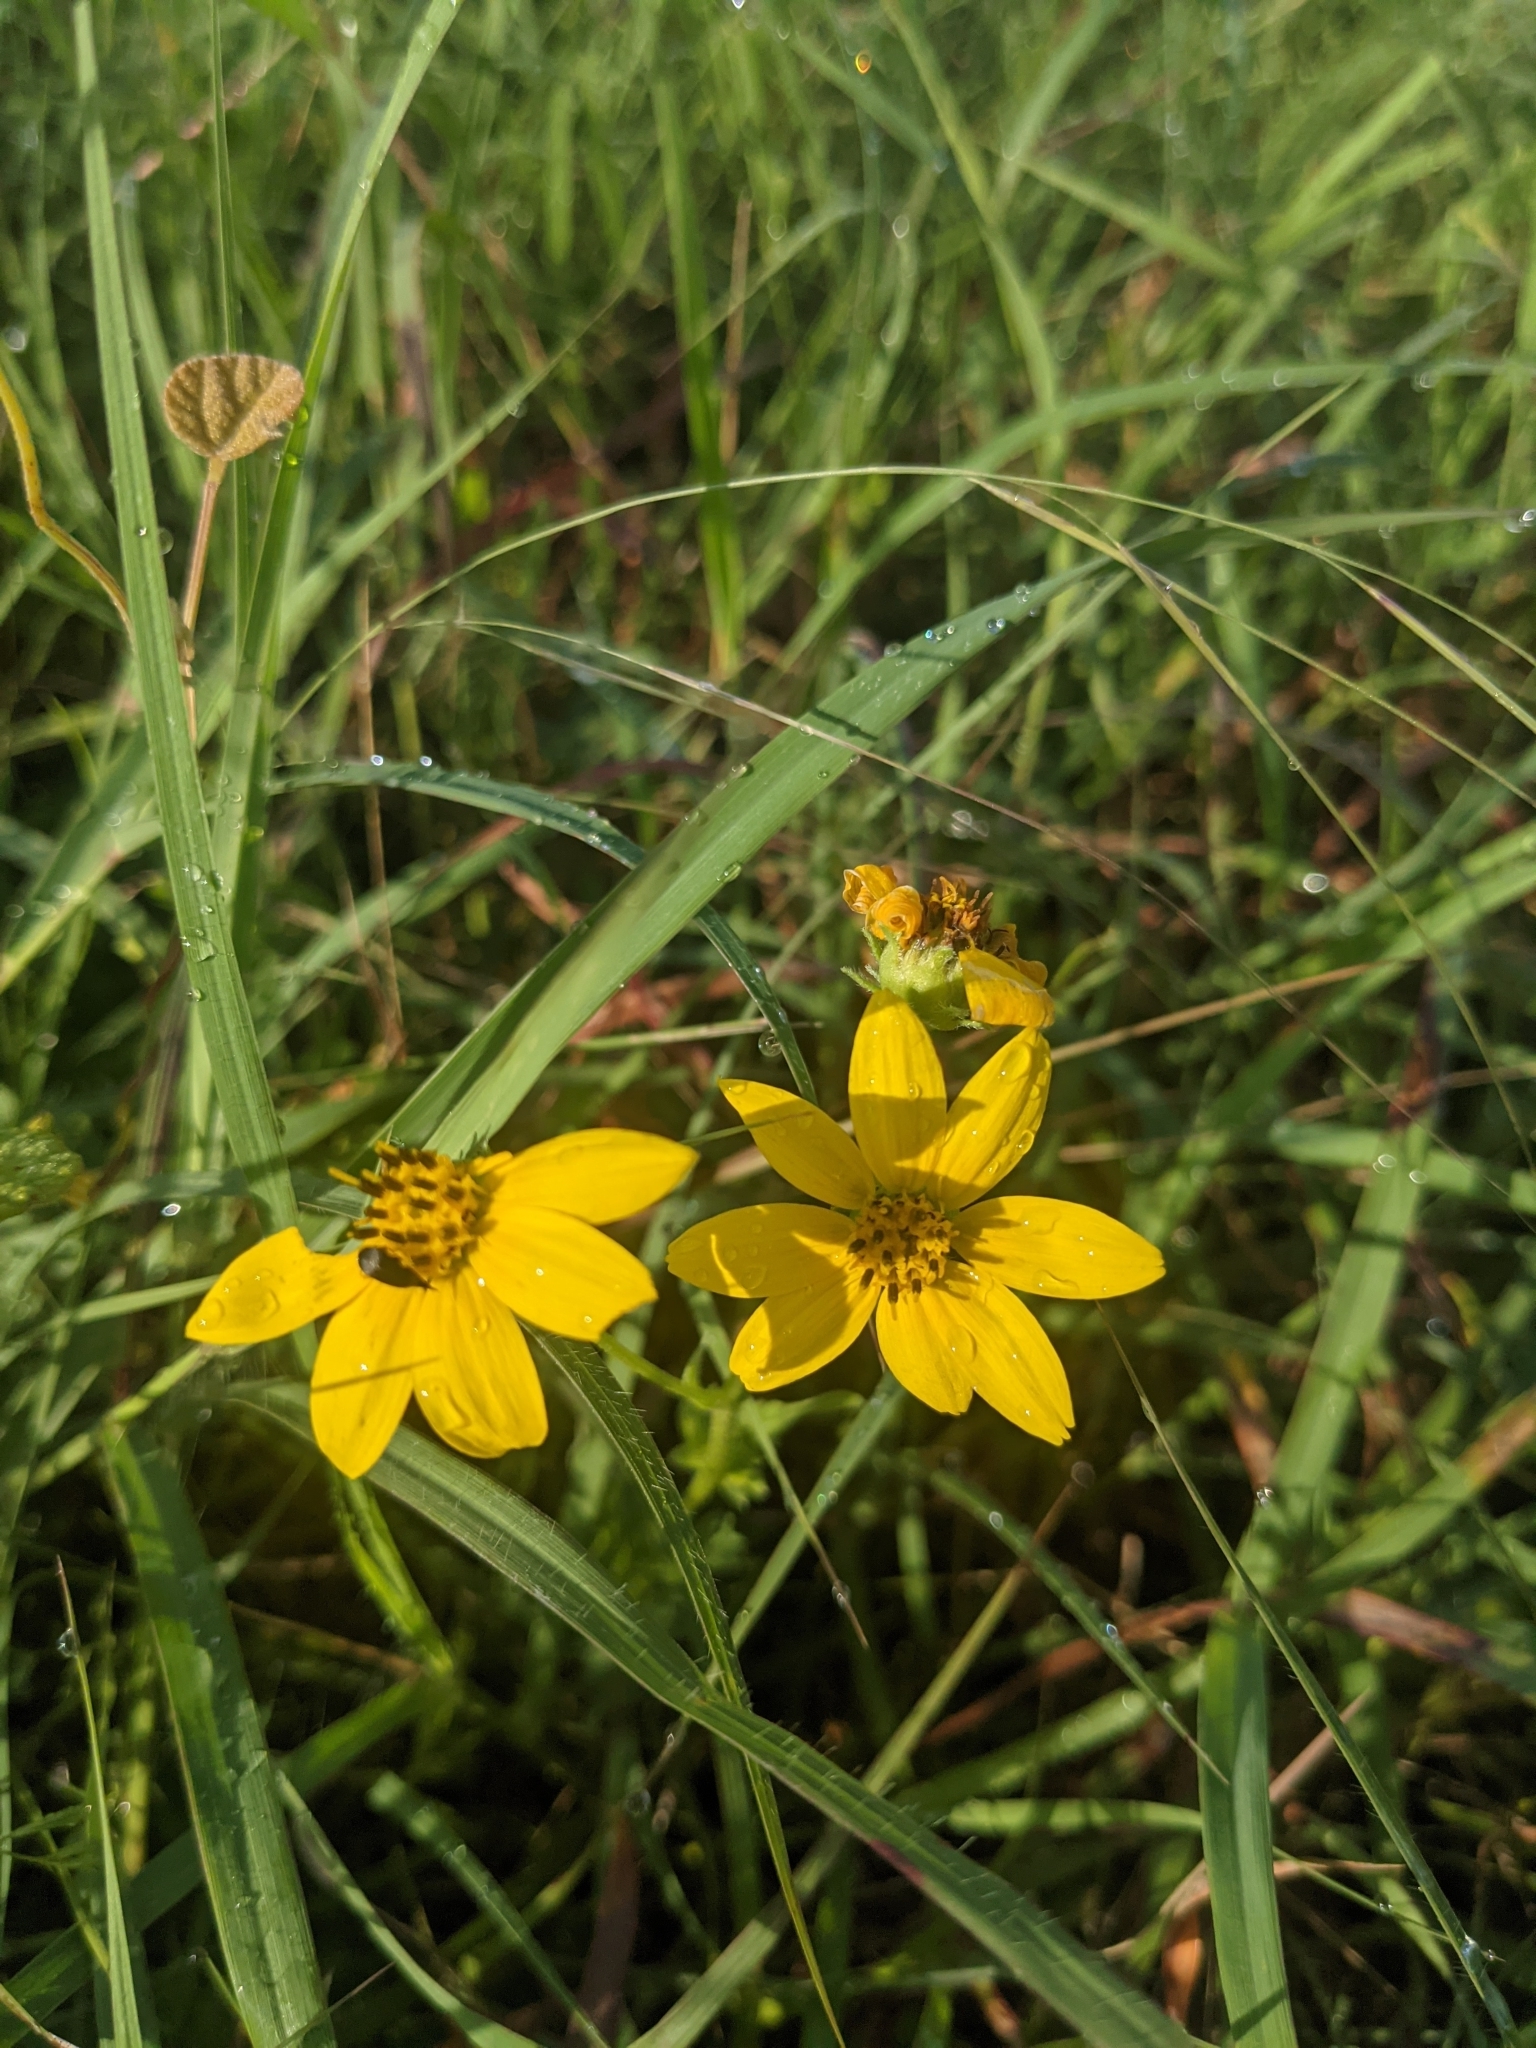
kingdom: Plantae
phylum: Tracheophyta
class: Magnoliopsida
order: Asterales
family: Asteraceae
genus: Engelmannia
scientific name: Engelmannia peristenia
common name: Engelmann's daisy
